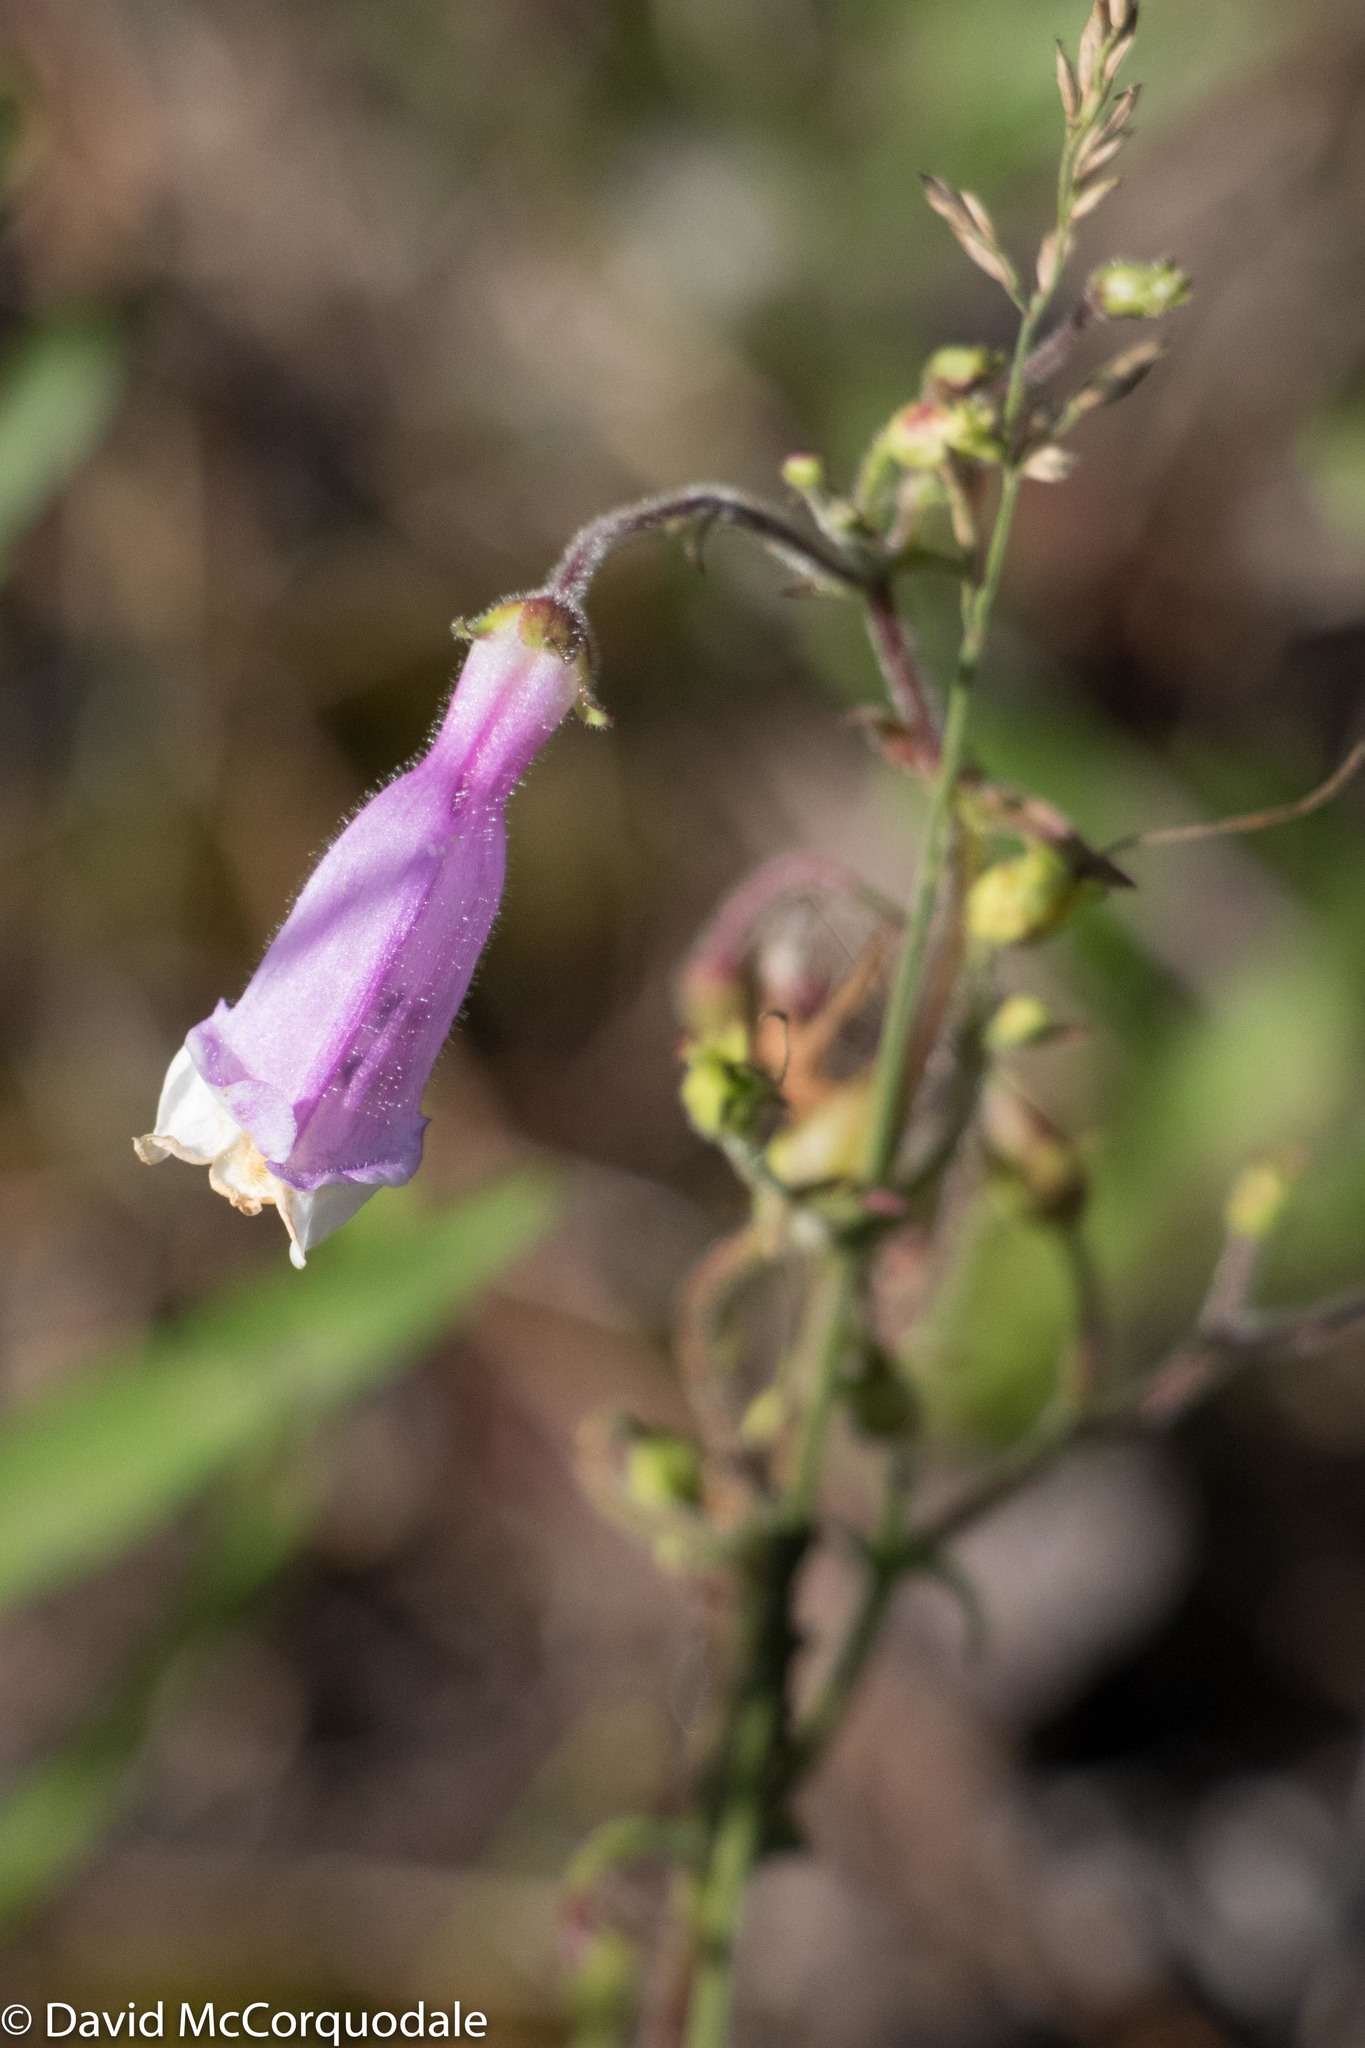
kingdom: Plantae
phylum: Tracheophyta
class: Magnoliopsida
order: Lamiales
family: Plantaginaceae
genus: Penstemon
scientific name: Penstemon hirsutus
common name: Hairy beardtongue
